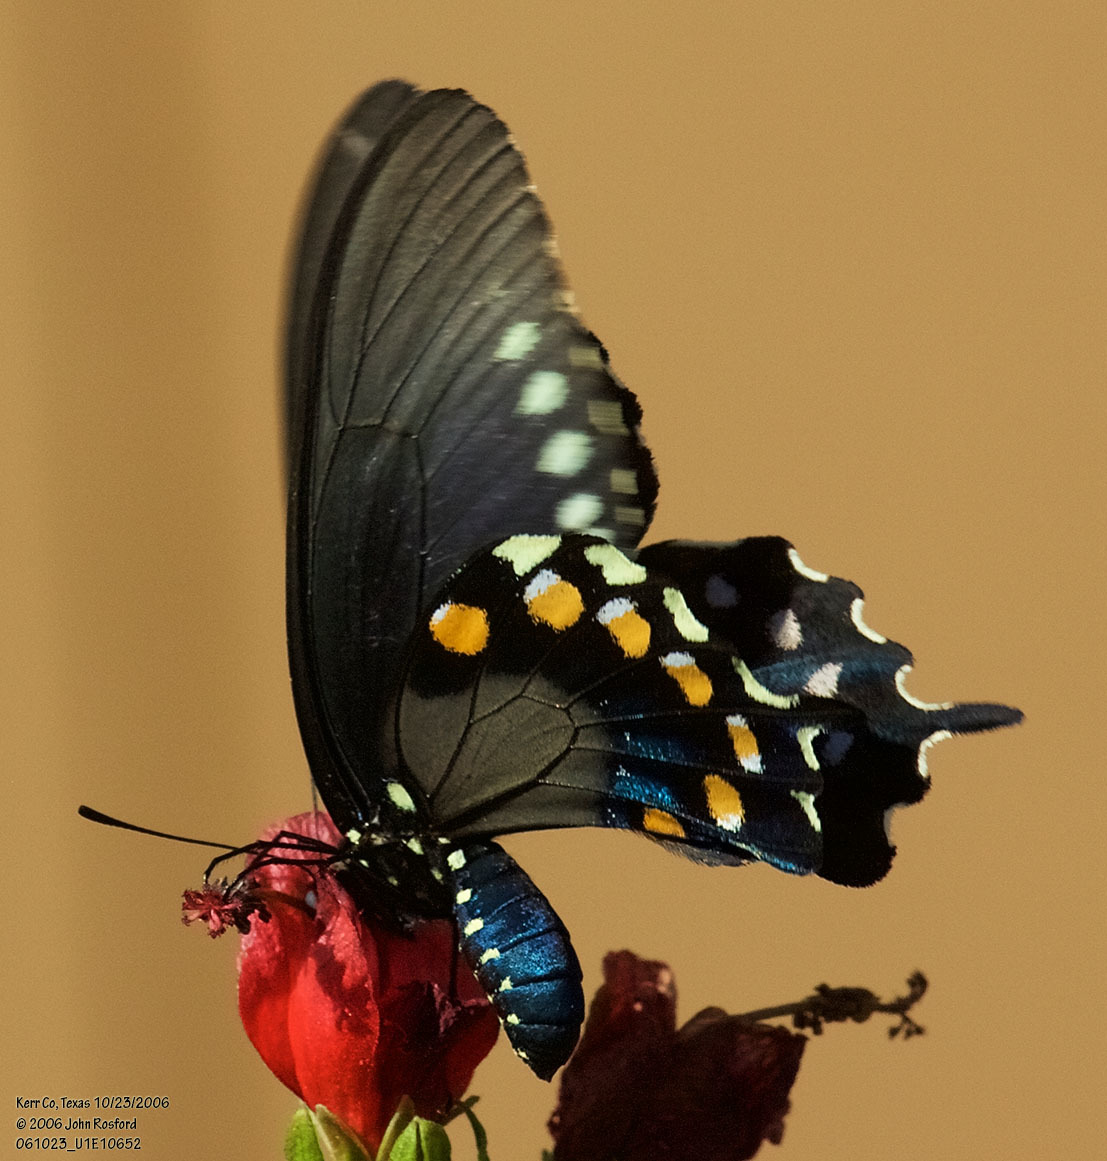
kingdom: Animalia
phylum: Arthropoda
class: Insecta
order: Lepidoptera
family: Papilionidae
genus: Battus
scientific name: Battus philenor
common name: Pipevine swallowtail
